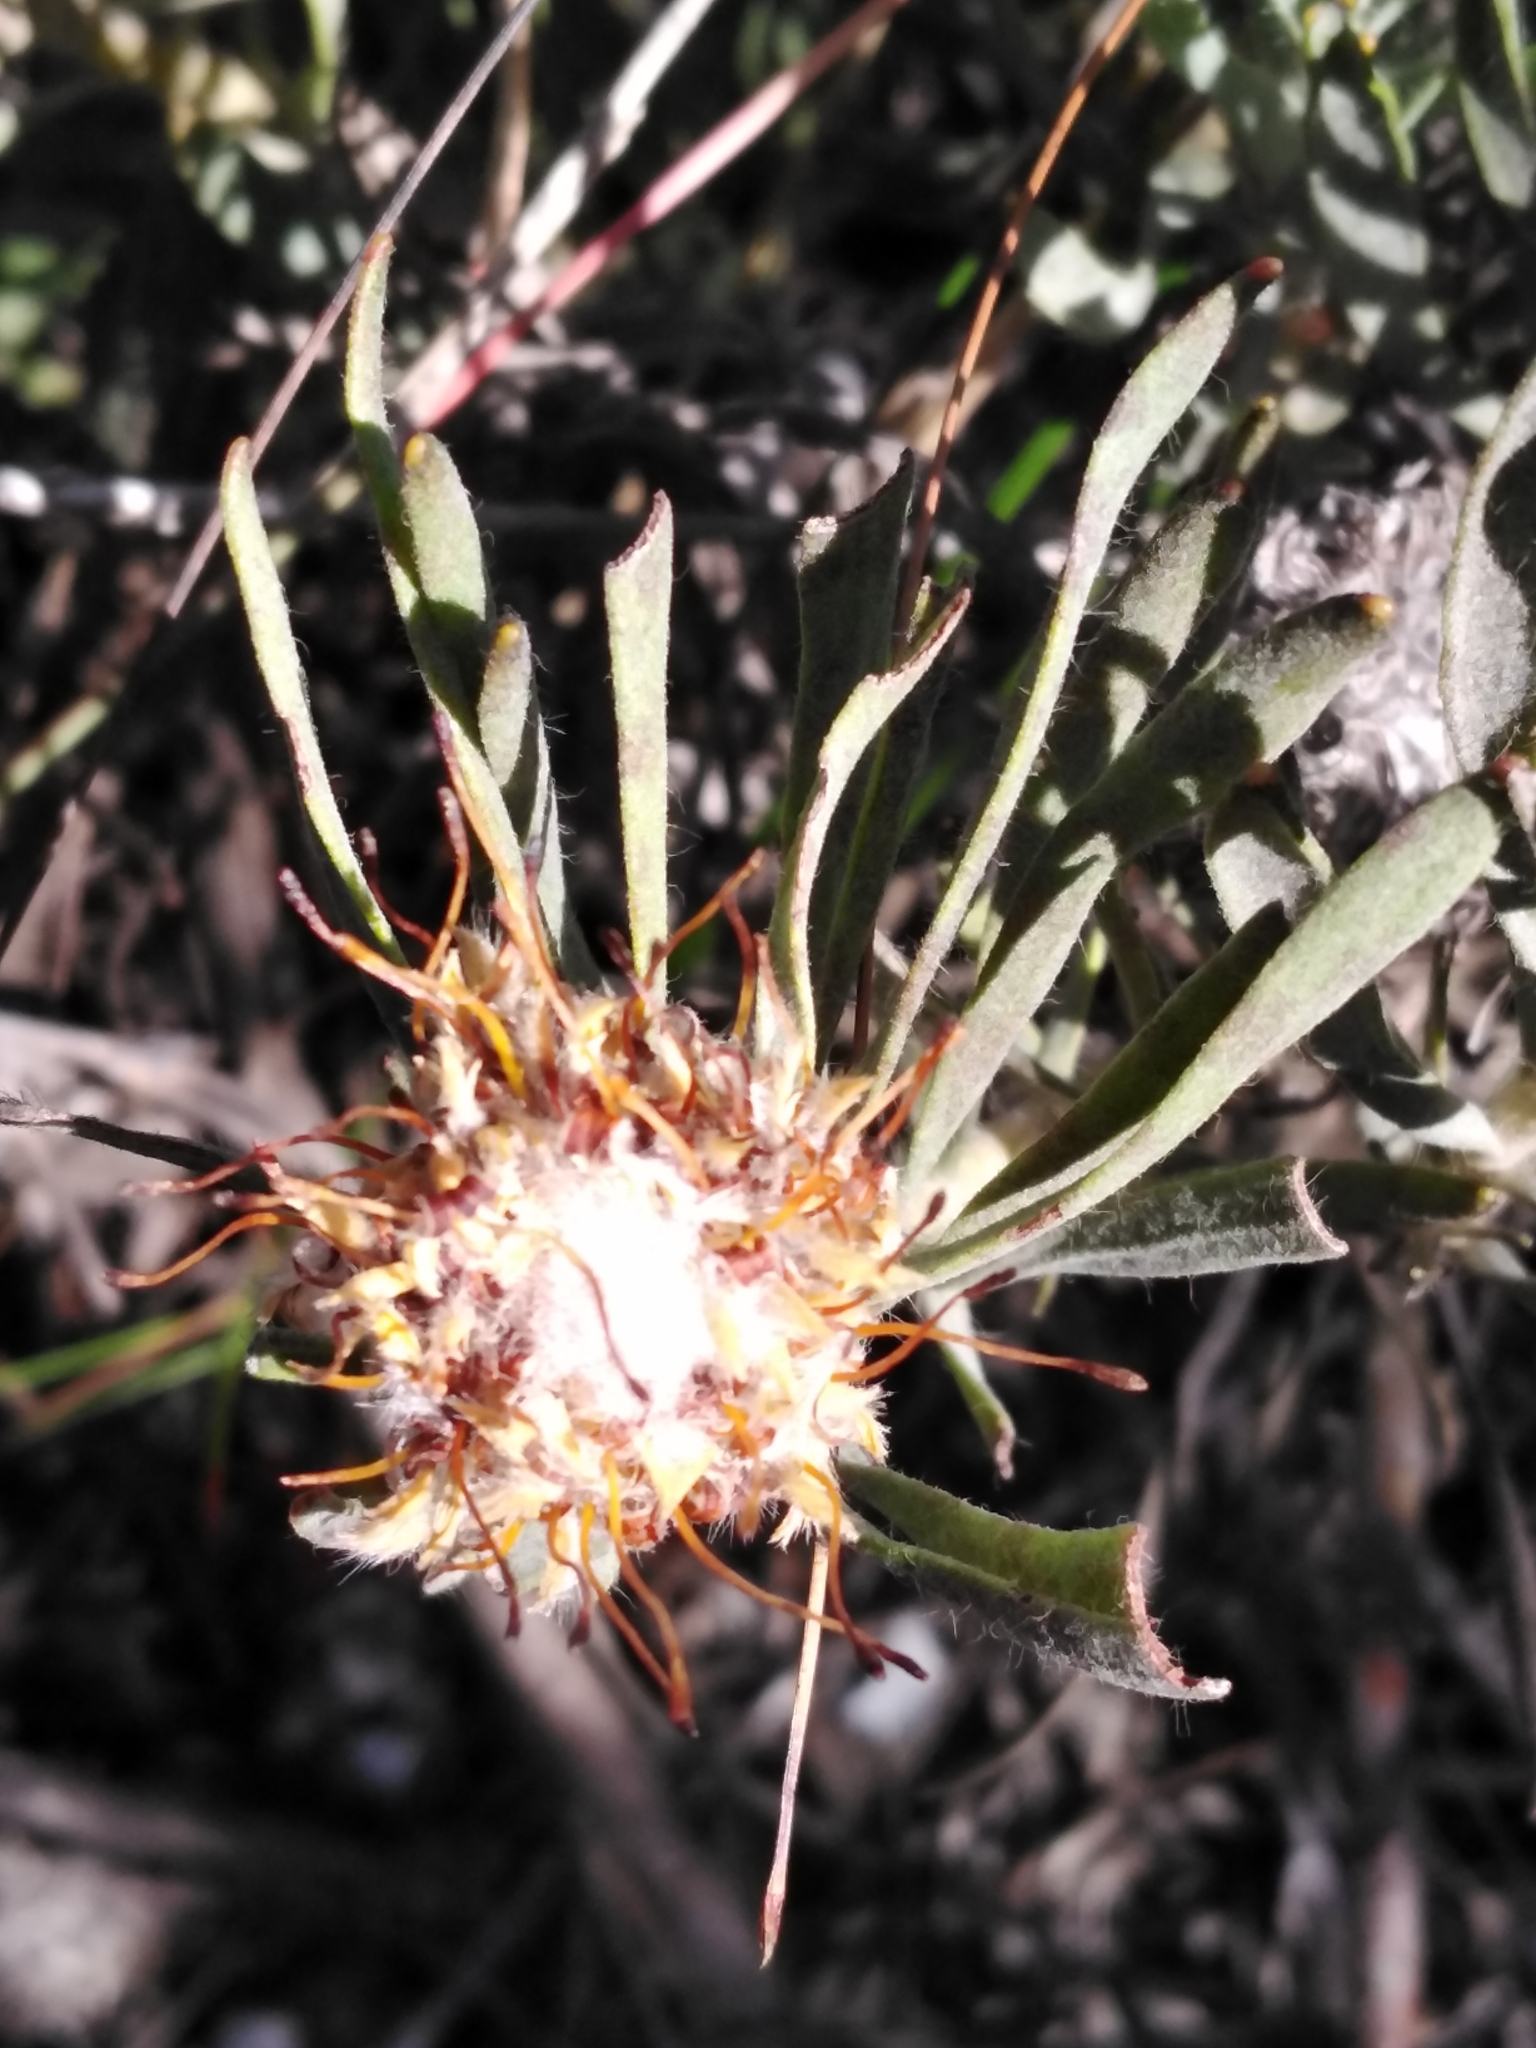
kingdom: Plantae
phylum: Tracheophyta
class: Magnoliopsida
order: Proteales
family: Proteaceae
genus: Leucospermum
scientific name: Leucospermum tomentosum
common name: Saldanha pincushion
